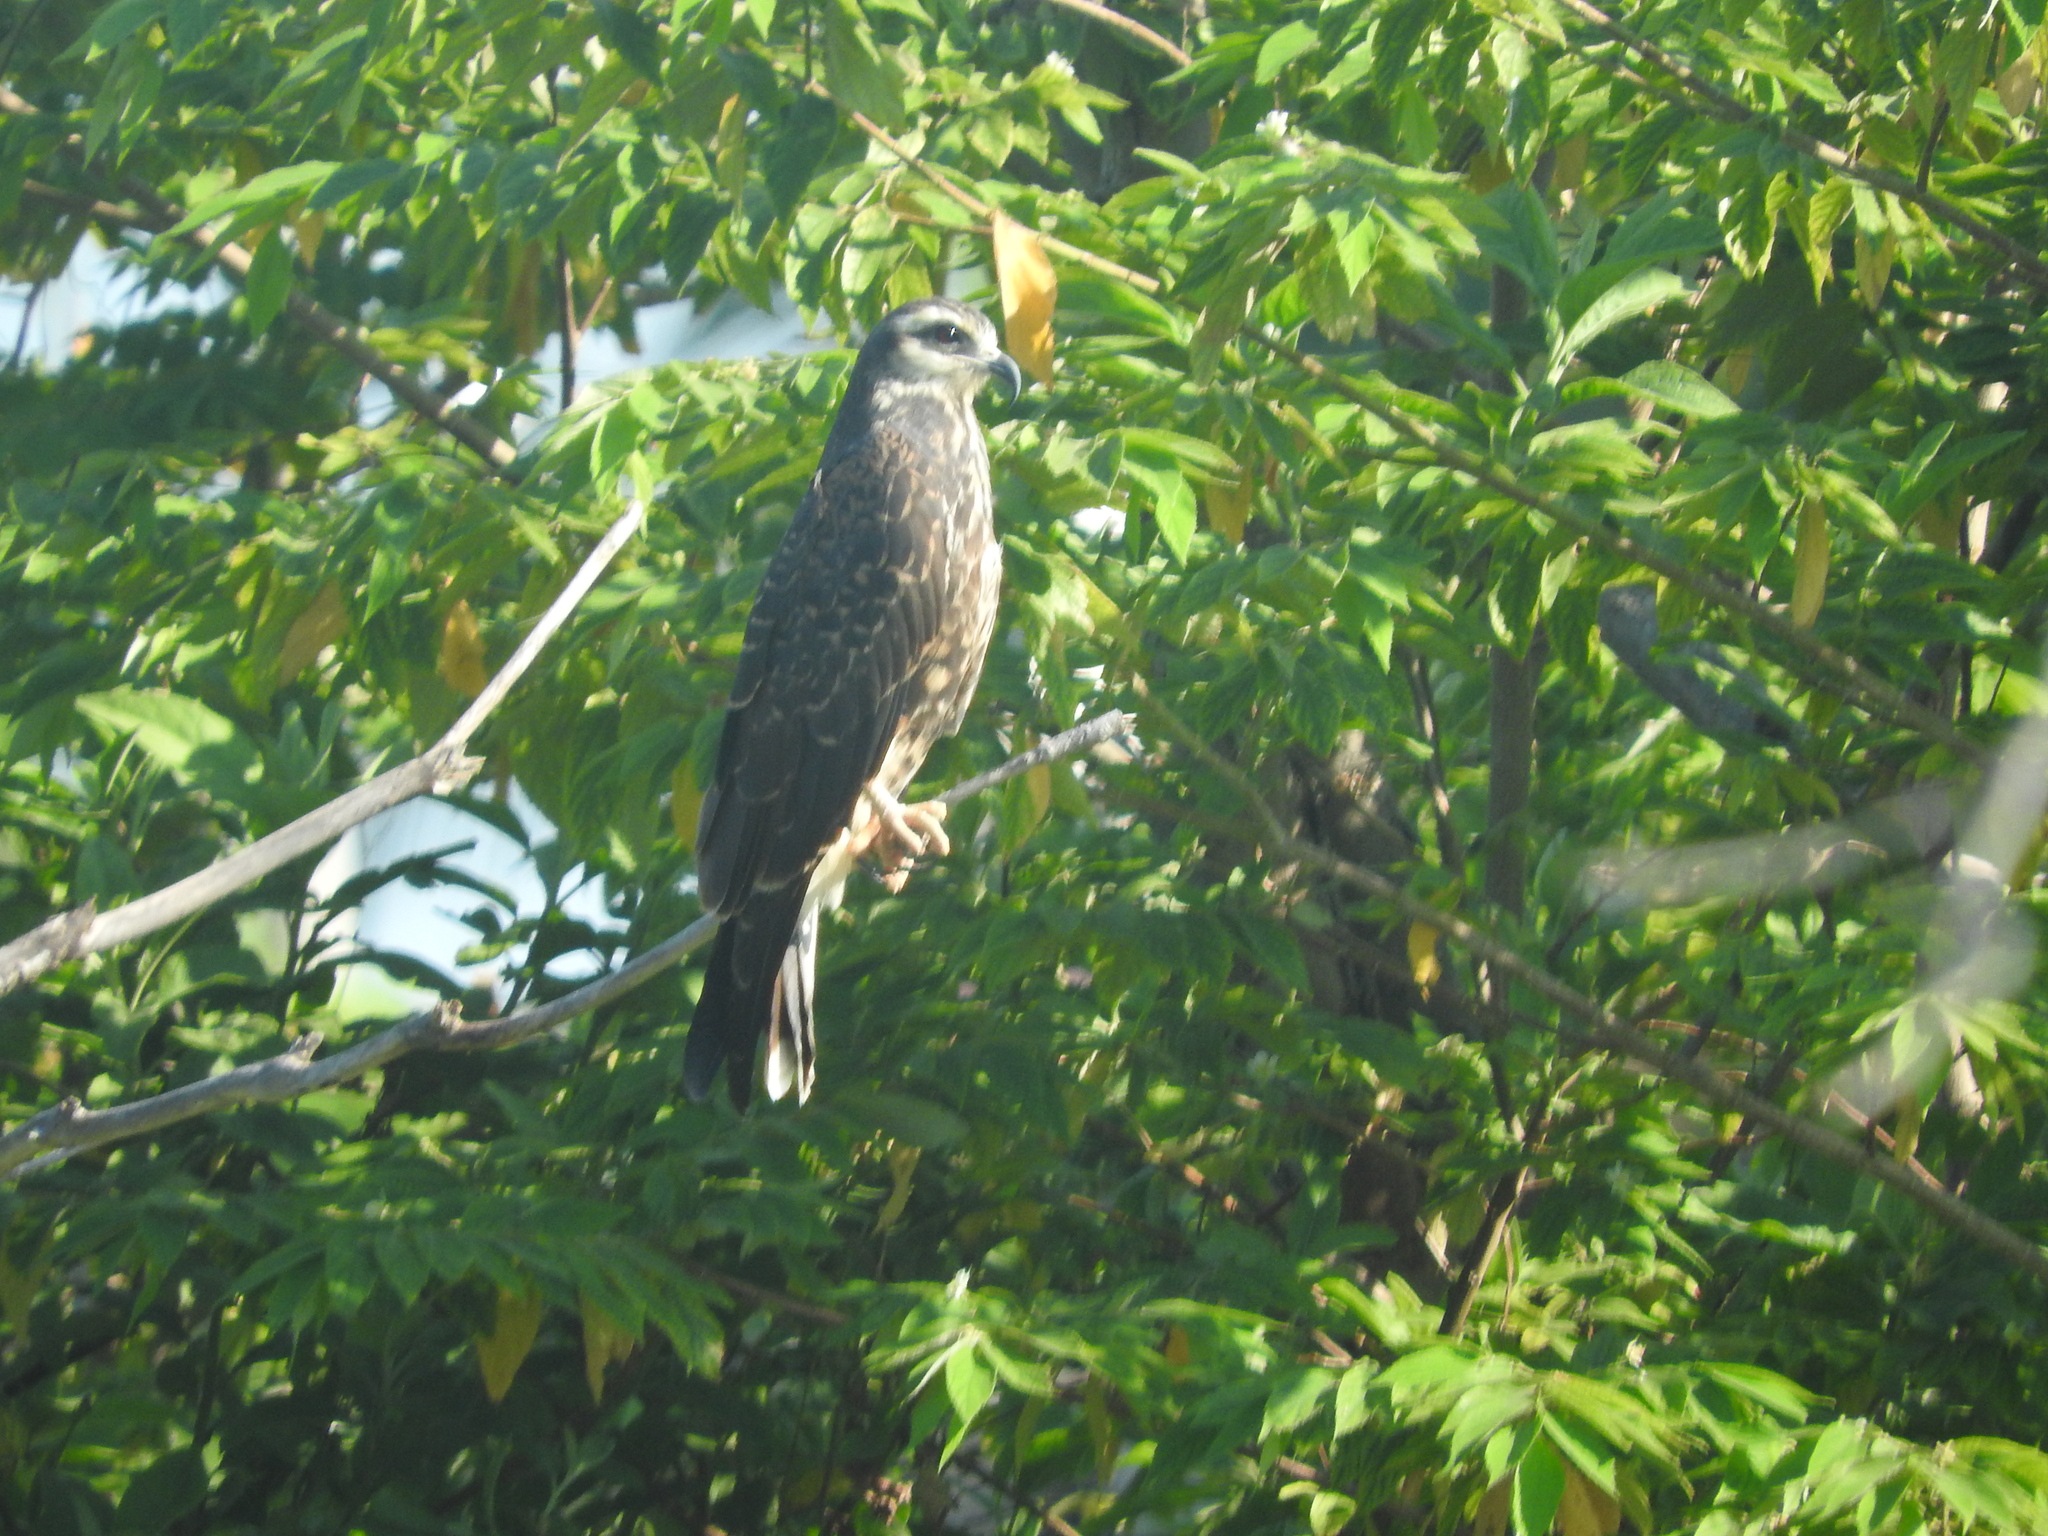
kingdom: Animalia
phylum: Chordata
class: Aves
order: Accipitriformes
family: Accipitridae
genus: Rostrhamus
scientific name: Rostrhamus sociabilis
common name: Snail kite
